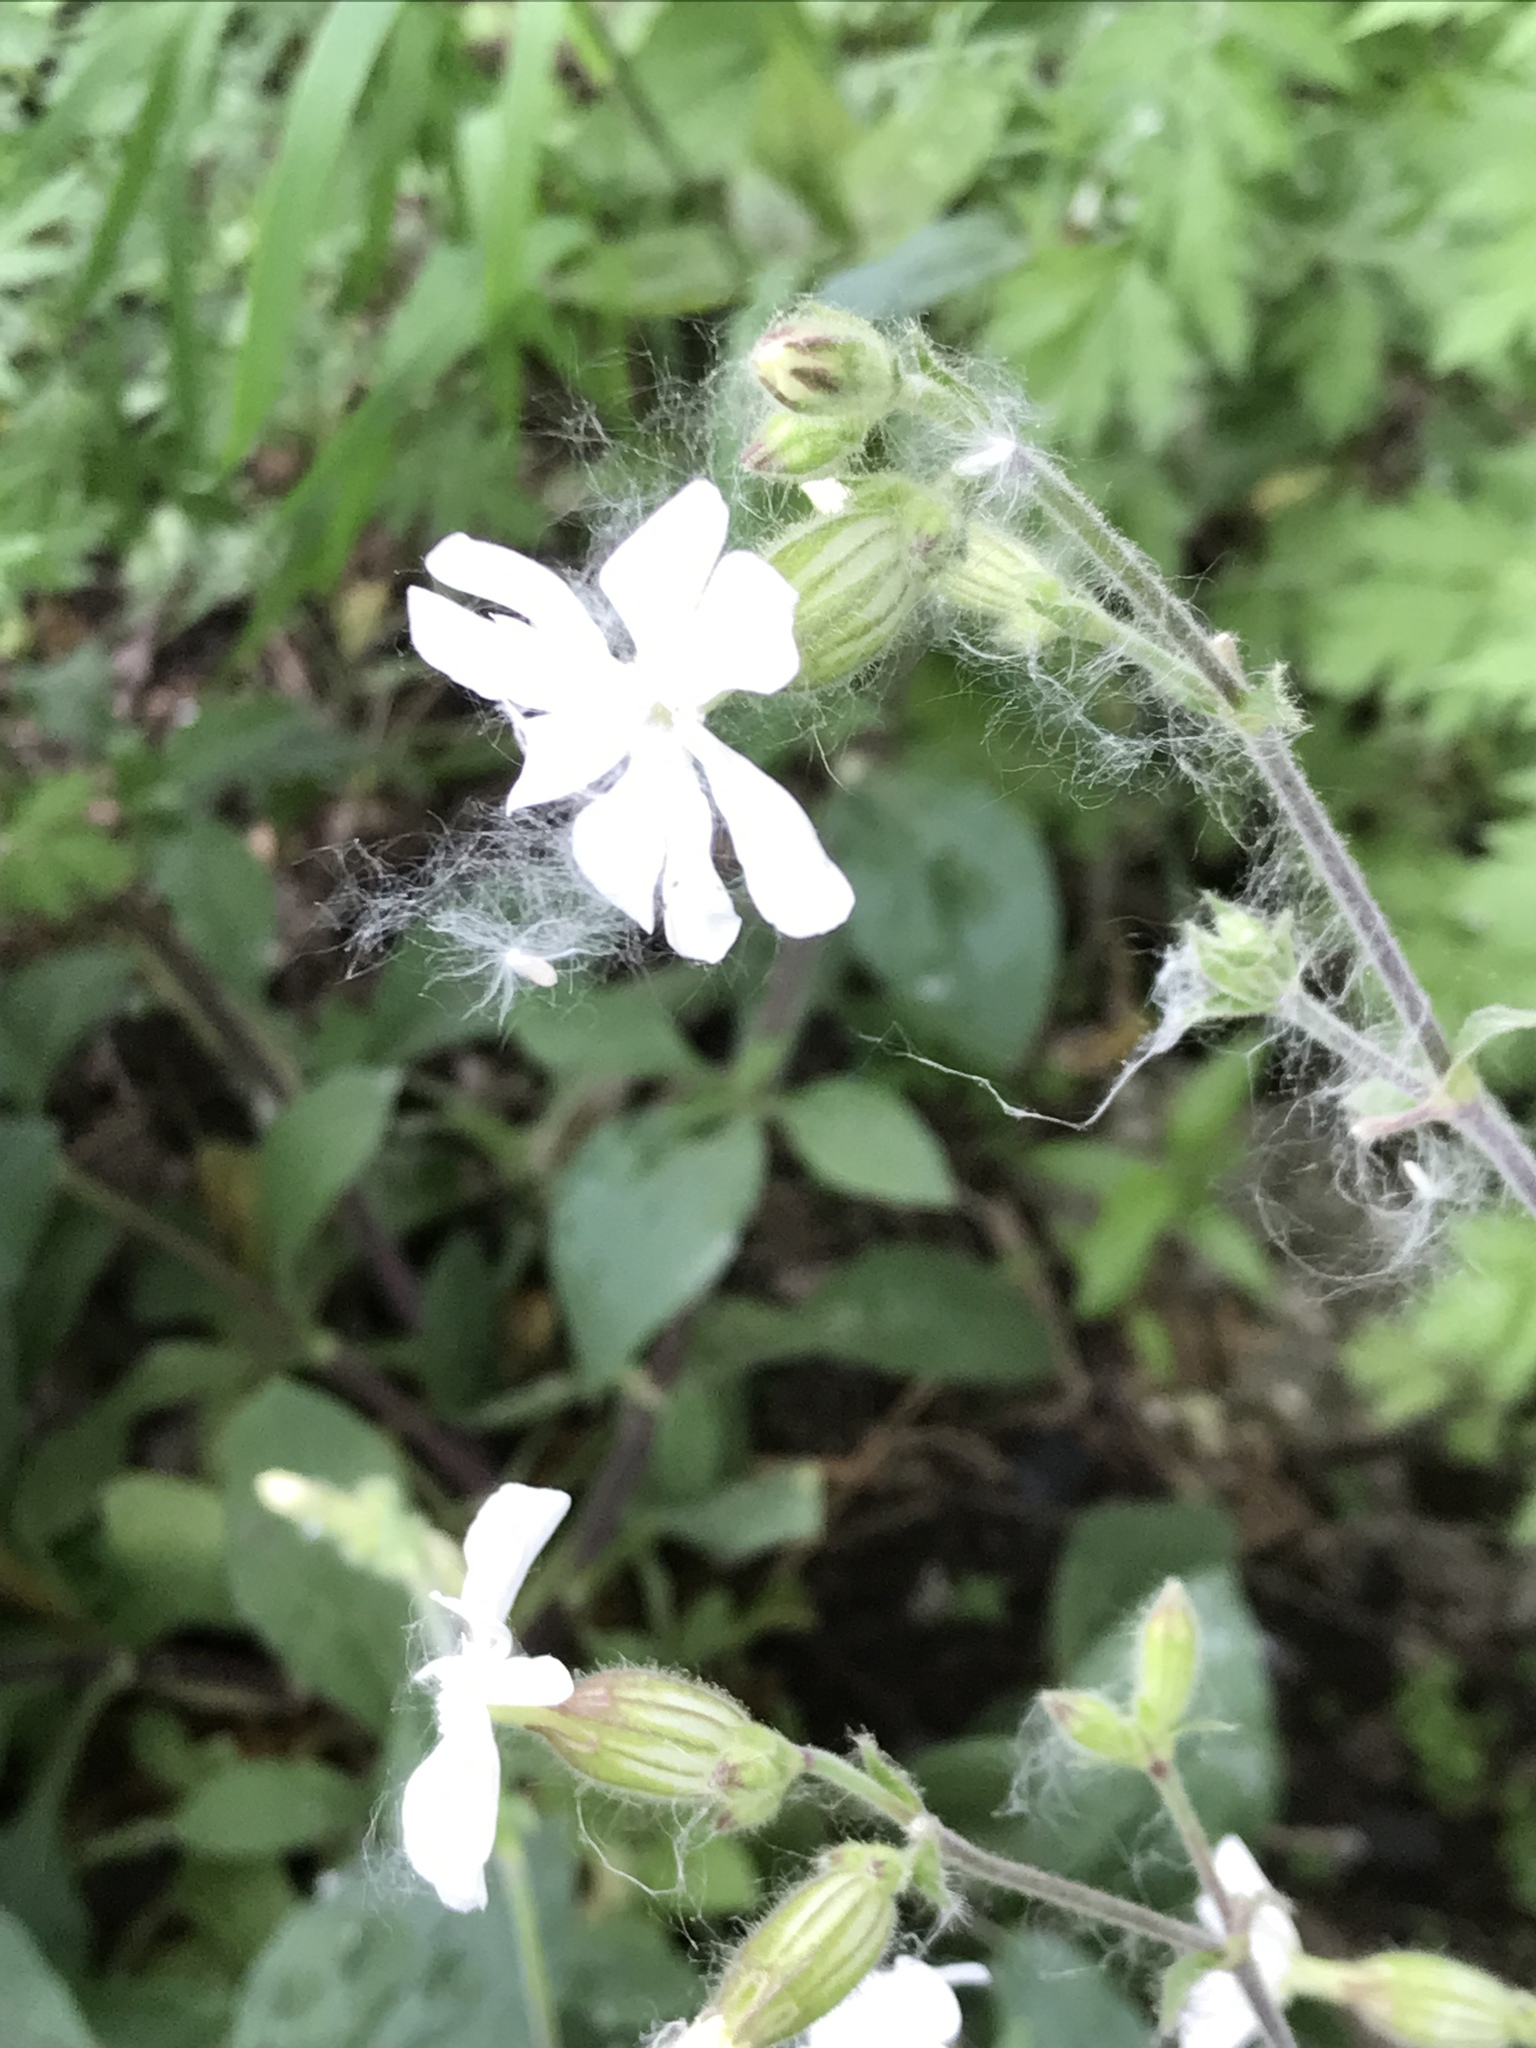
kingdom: Plantae
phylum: Tracheophyta
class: Magnoliopsida
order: Caryophyllales
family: Caryophyllaceae
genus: Silene
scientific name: Silene latifolia
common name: White campion
